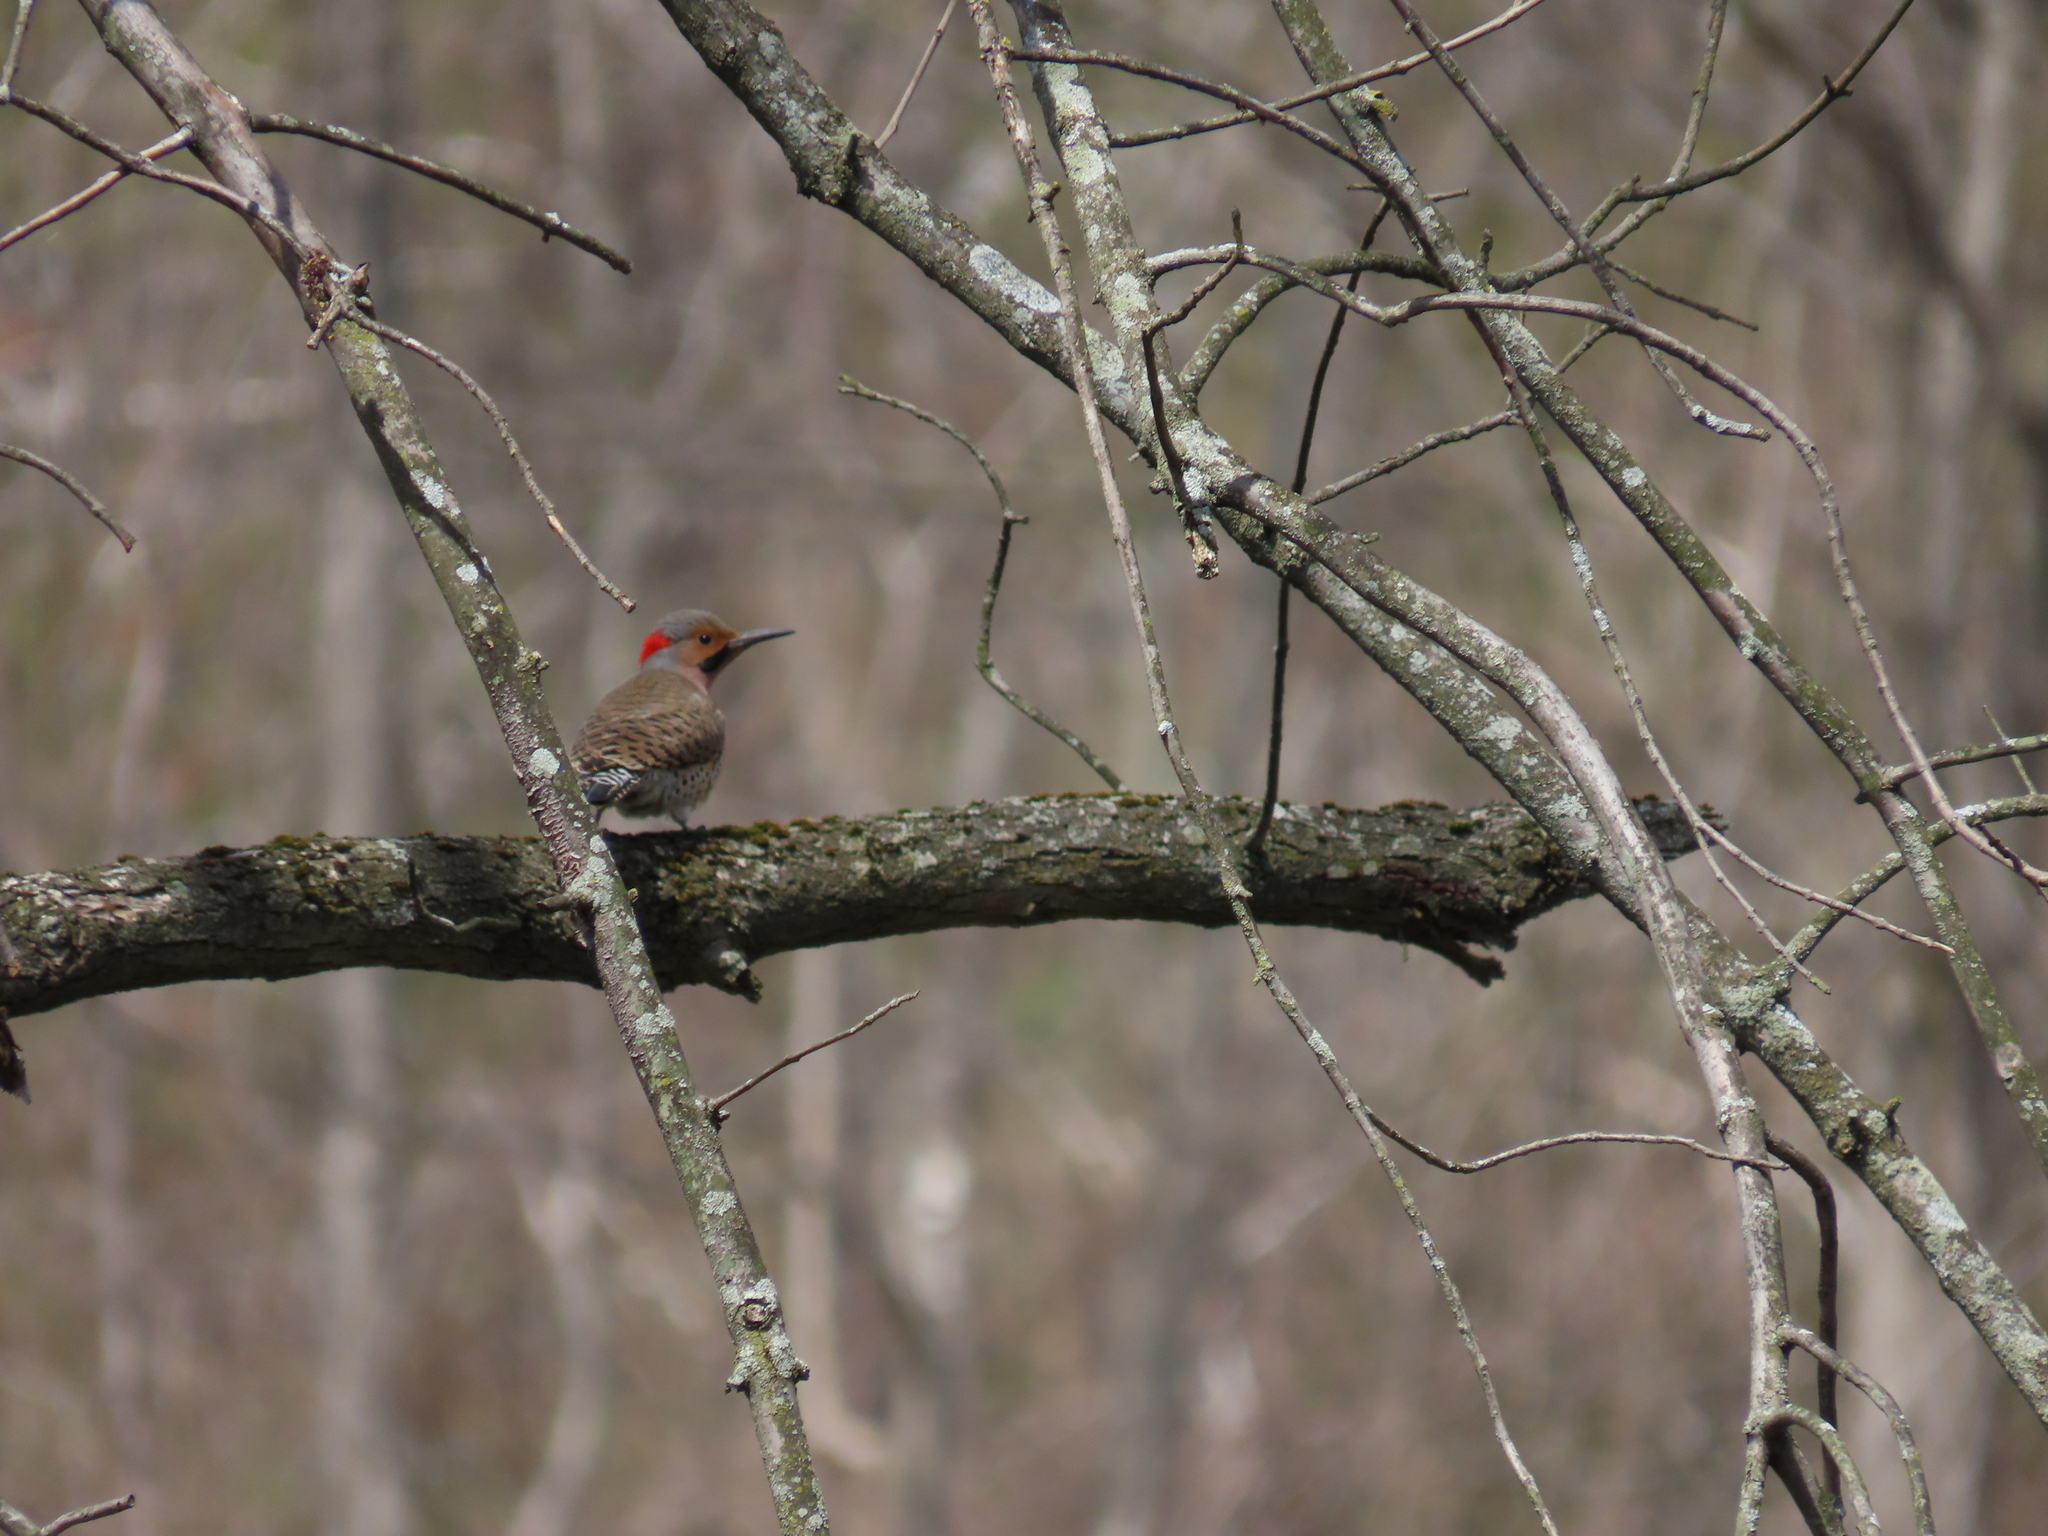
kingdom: Animalia
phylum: Chordata
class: Aves
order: Piciformes
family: Picidae
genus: Colaptes
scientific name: Colaptes auratus
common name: Northern flicker
